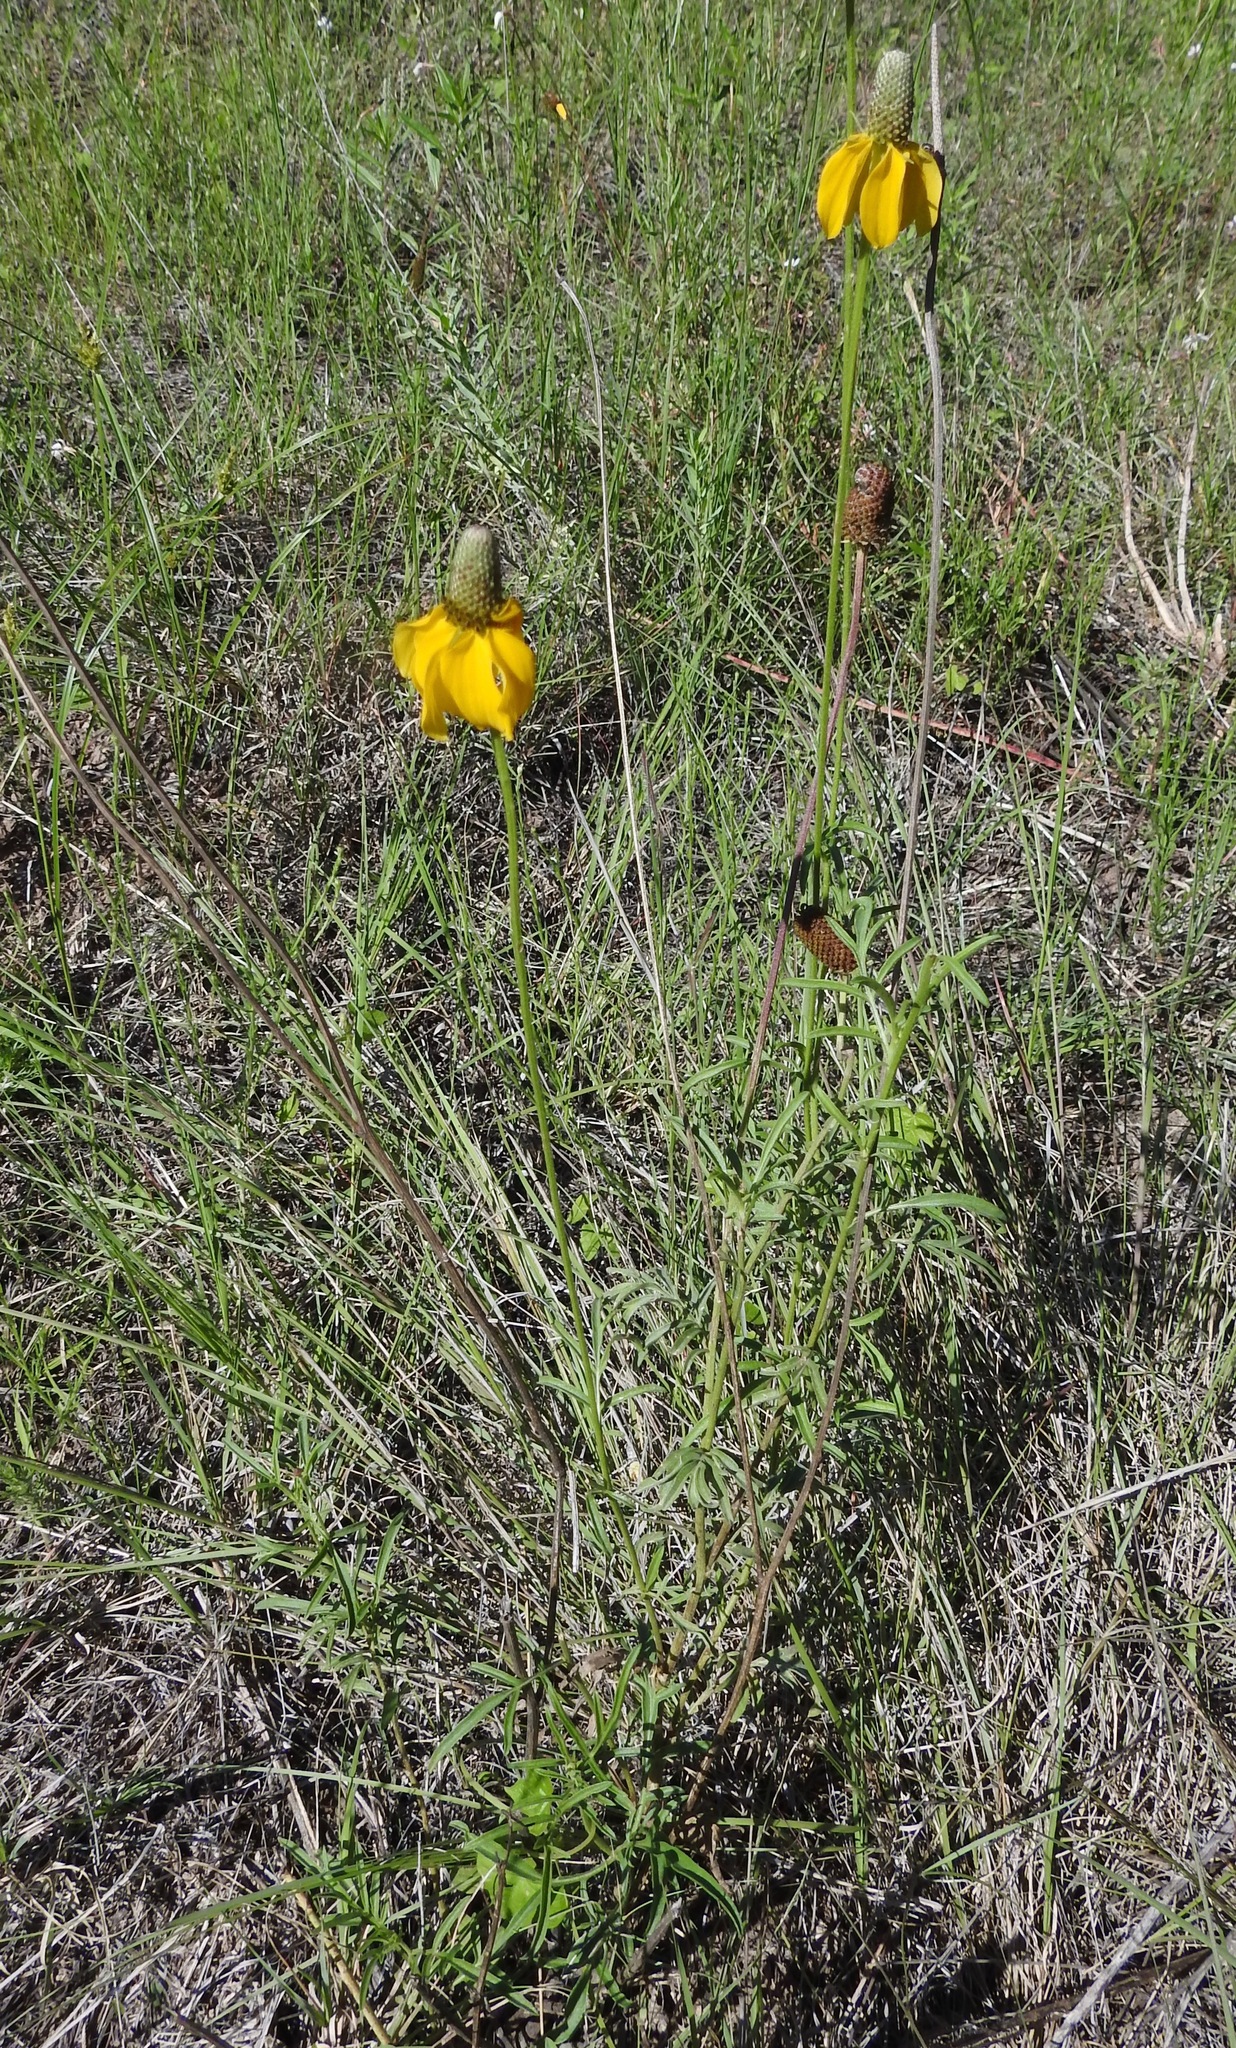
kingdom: Plantae
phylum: Tracheophyta
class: Magnoliopsida
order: Asterales
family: Asteraceae
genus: Ratibida
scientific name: Ratibida columnifera
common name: Prairie coneflower
